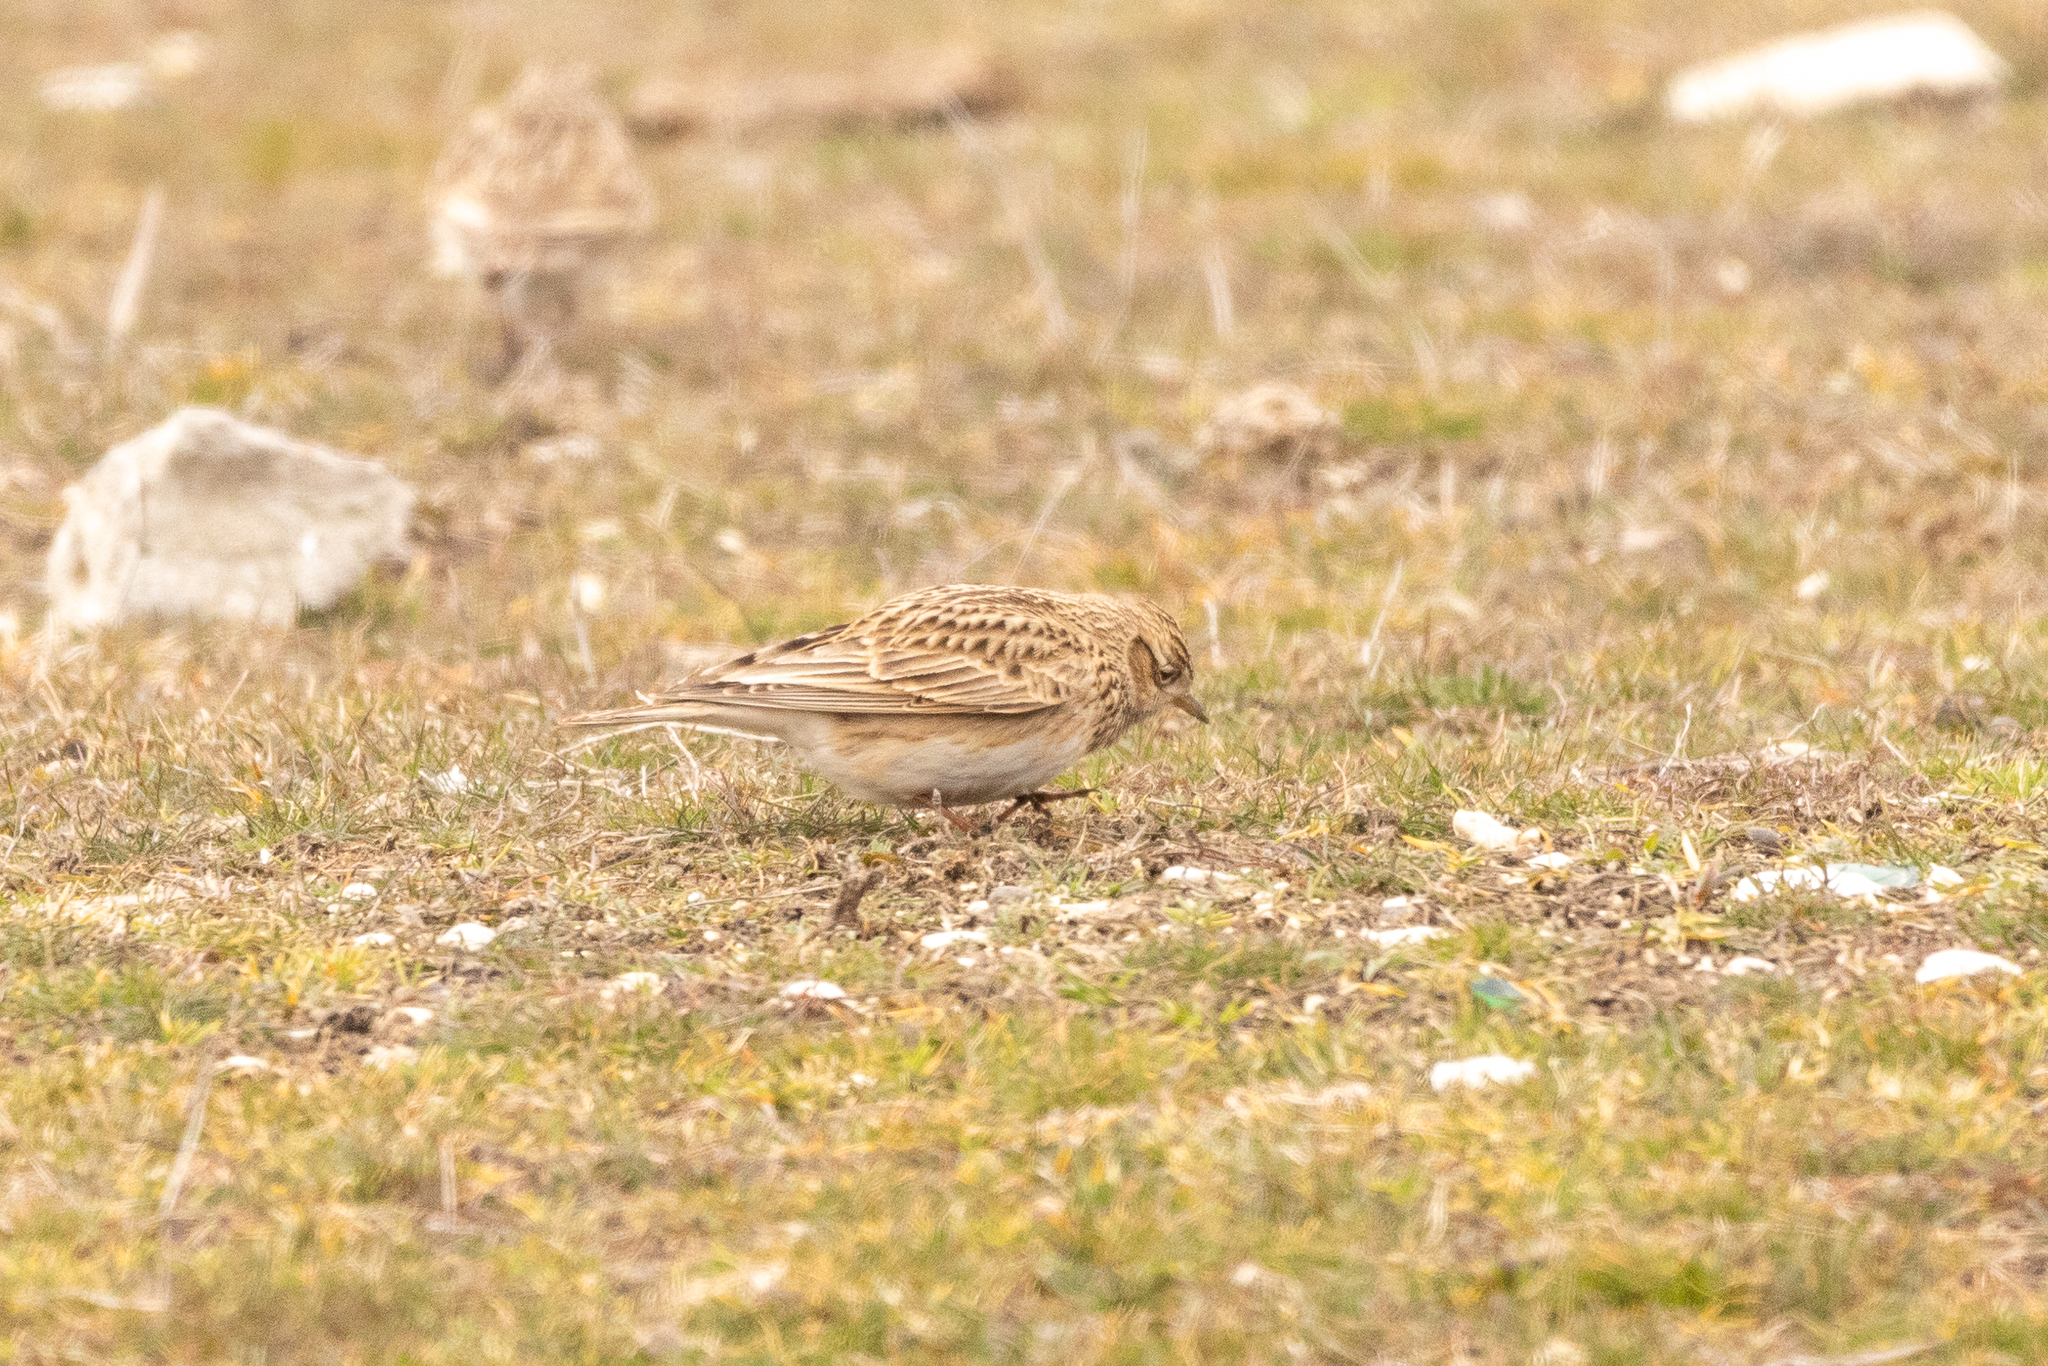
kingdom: Animalia
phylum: Chordata
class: Aves
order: Passeriformes
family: Alaudidae
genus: Alauda
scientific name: Alauda arvensis
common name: Eurasian skylark
